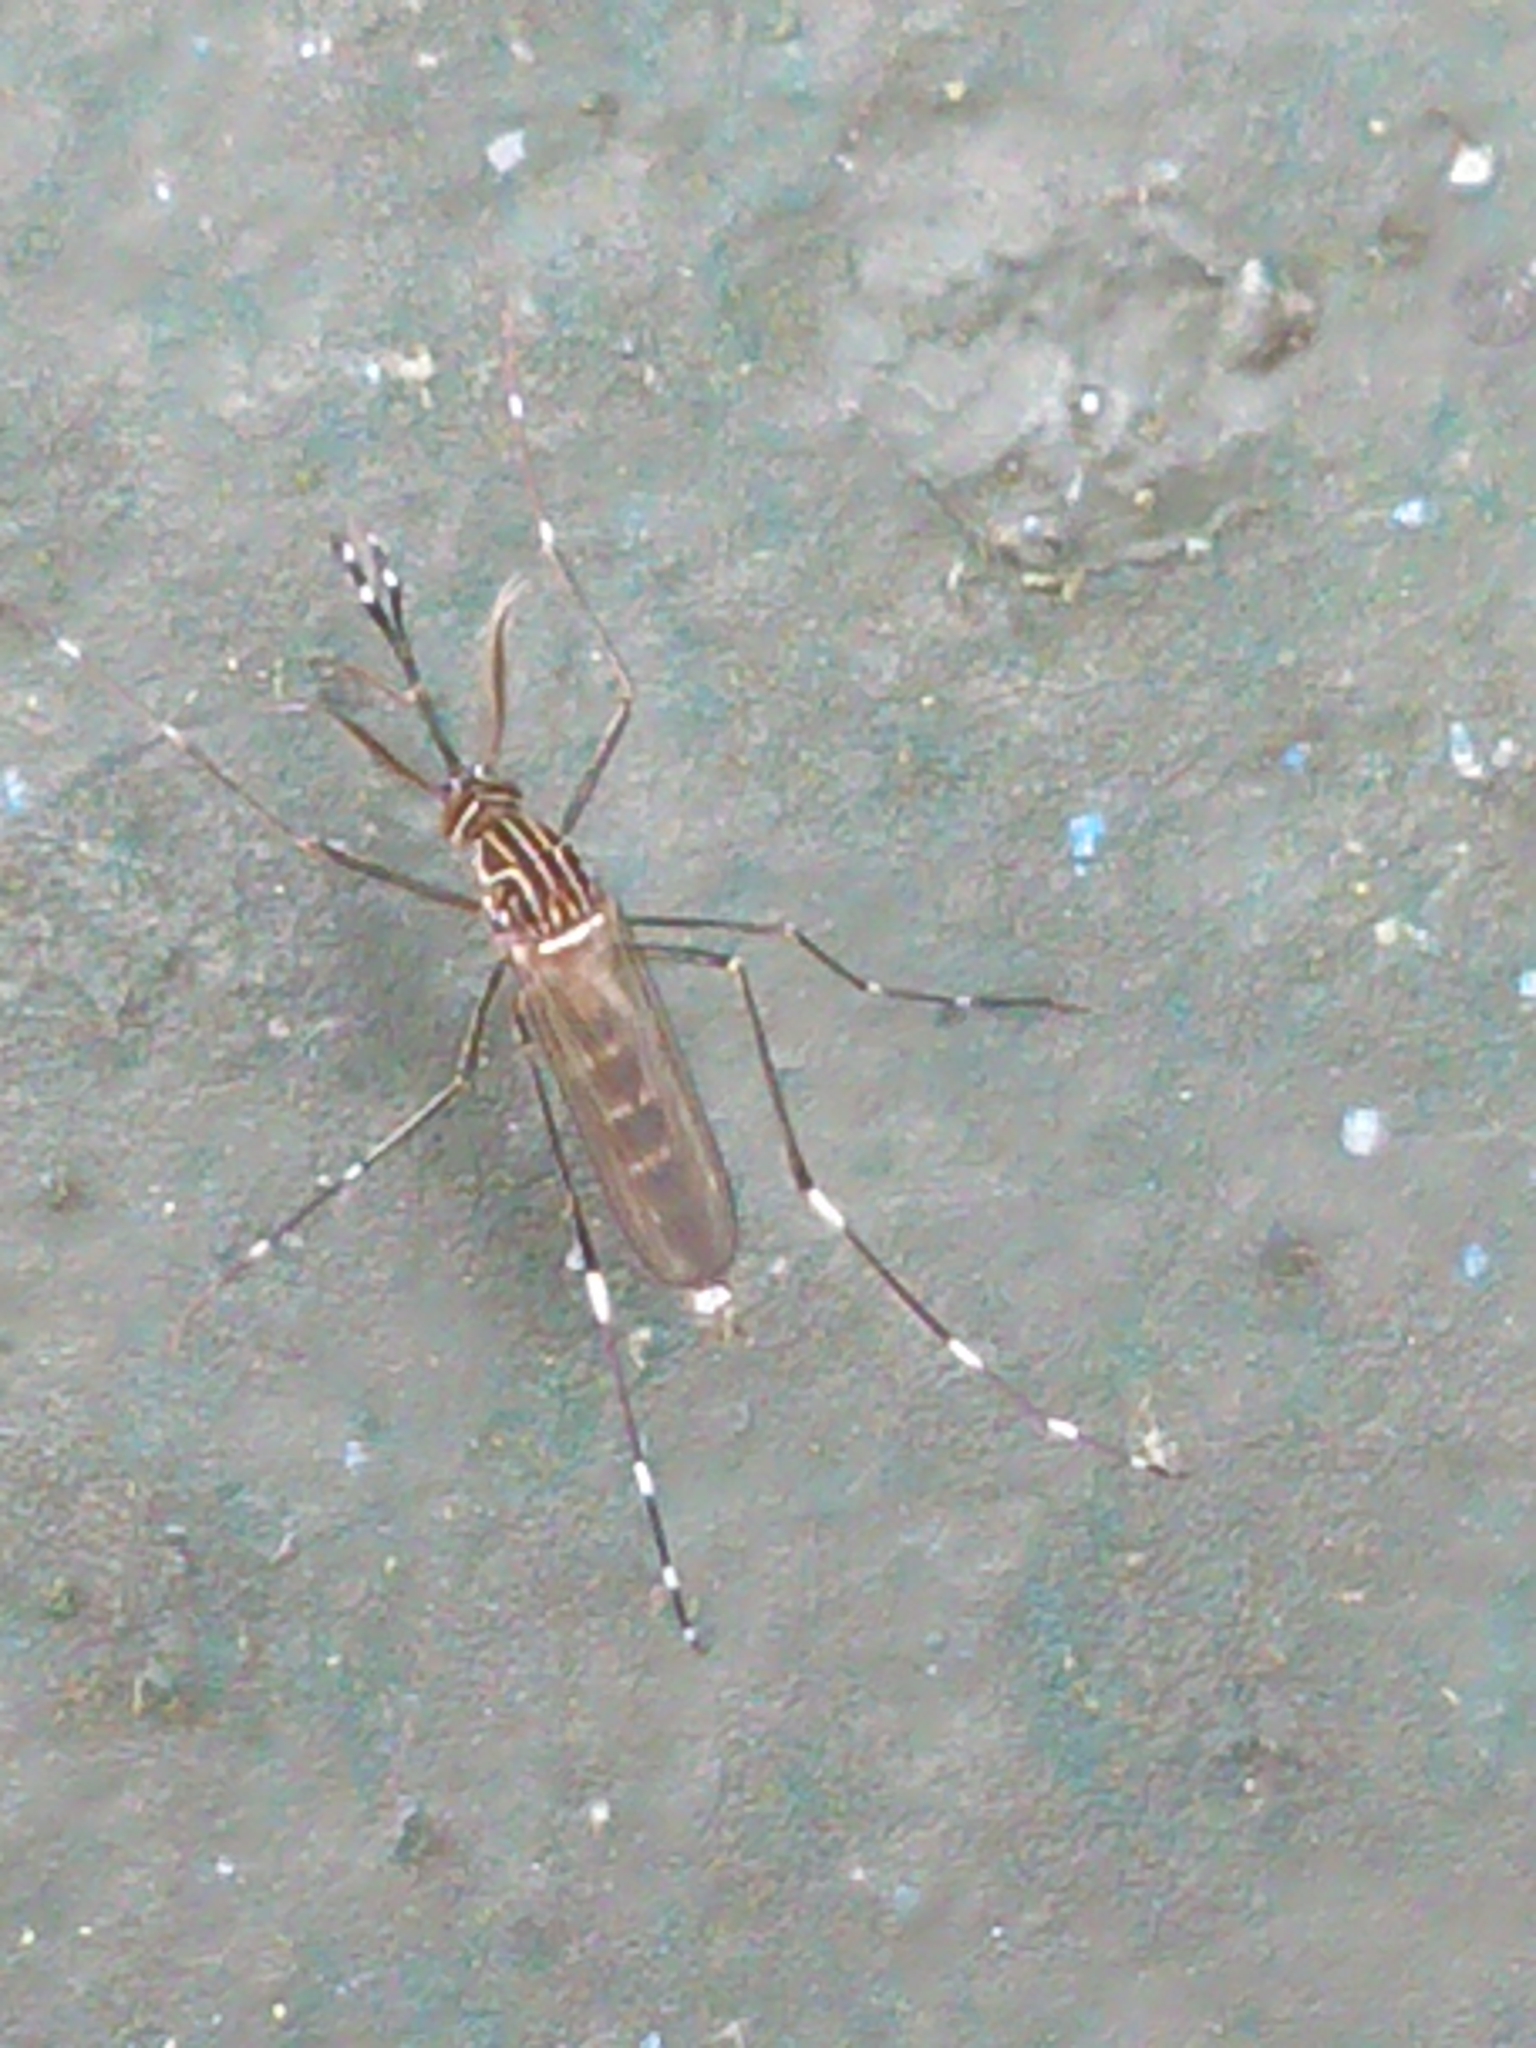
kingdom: Animalia
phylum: Arthropoda
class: Insecta
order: Diptera
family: Culicidae
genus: Aedes
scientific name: Aedes notoscriptus
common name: Australian backyard mosquito
